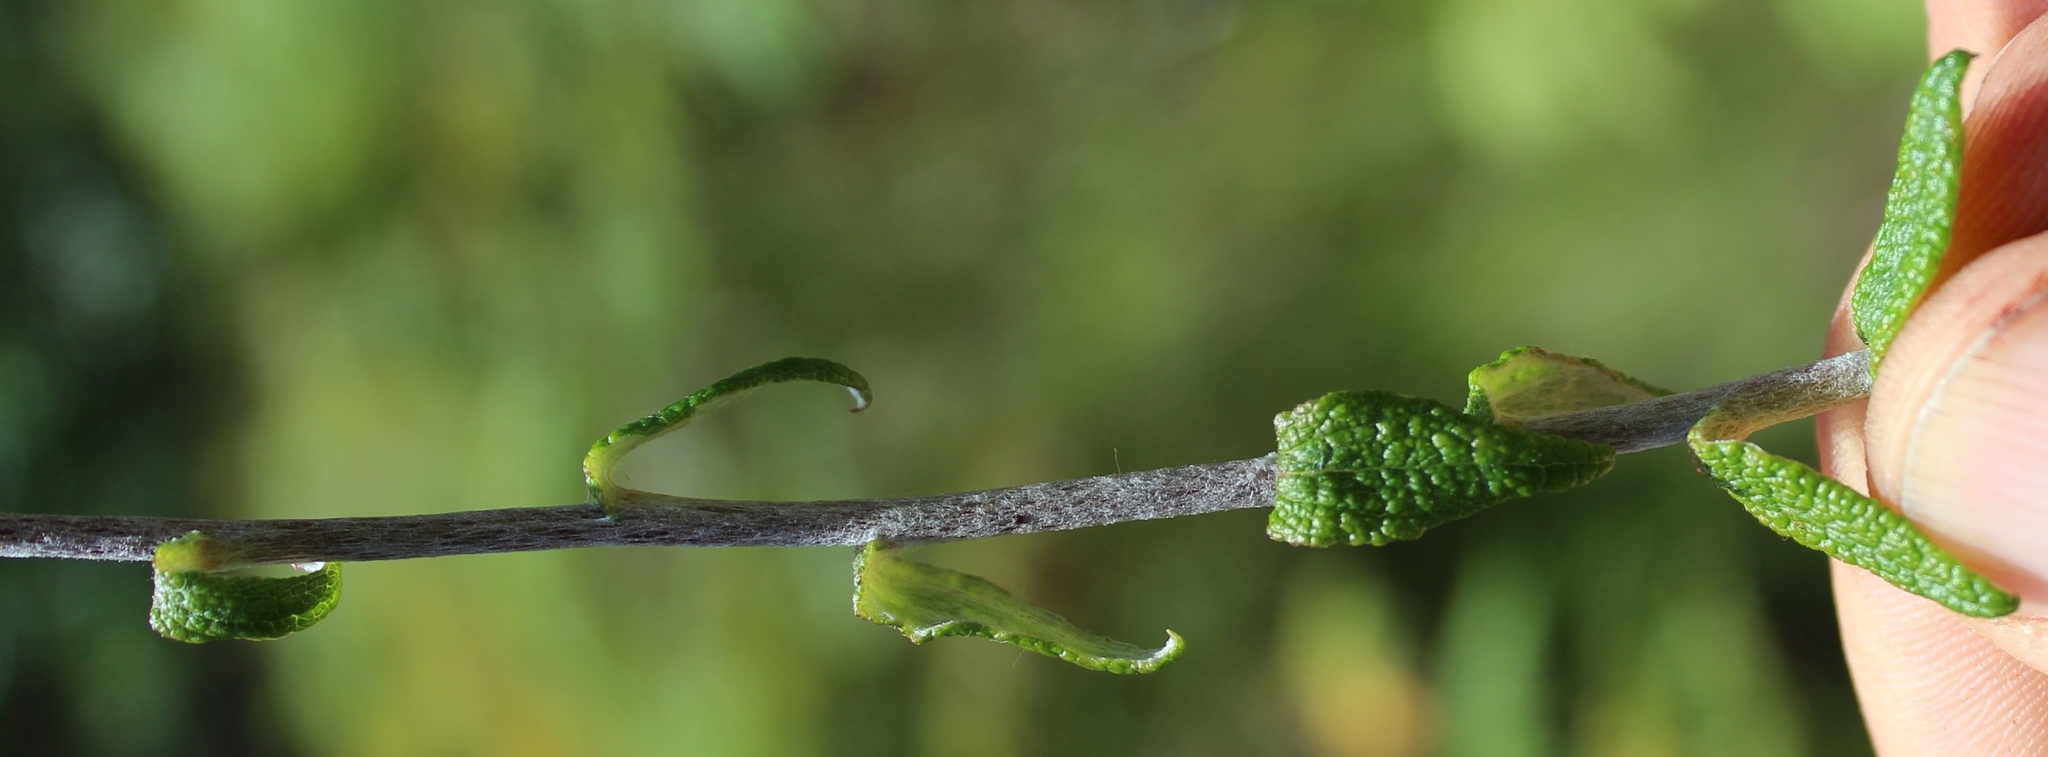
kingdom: Plantae
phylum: Tracheophyta
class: Magnoliopsida
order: Asterales
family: Asteraceae
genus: Helichrysum
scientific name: Helichrysum felinum
